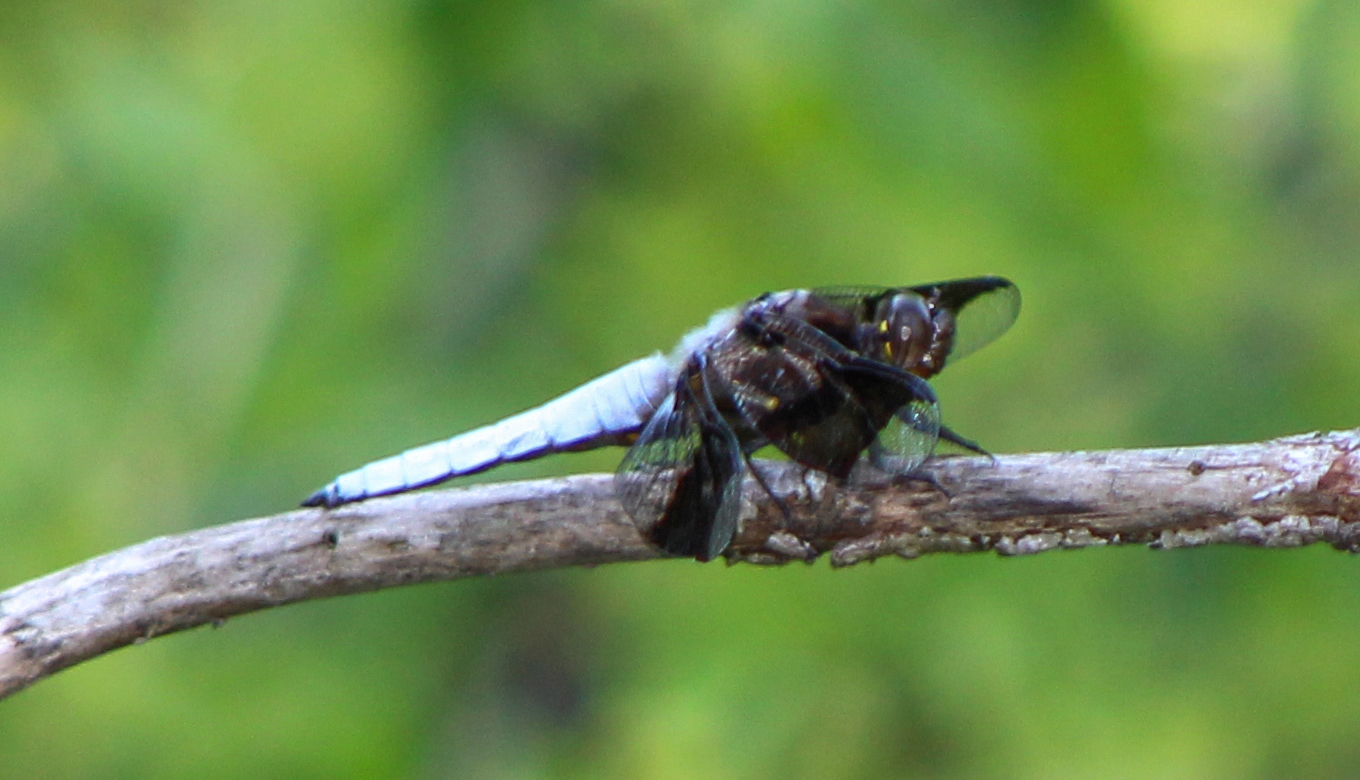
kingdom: Animalia
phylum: Arthropoda
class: Insecta
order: Odonata
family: Libellulidae
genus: Plathemis
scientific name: Plathemis lydia
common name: Common whitetail
